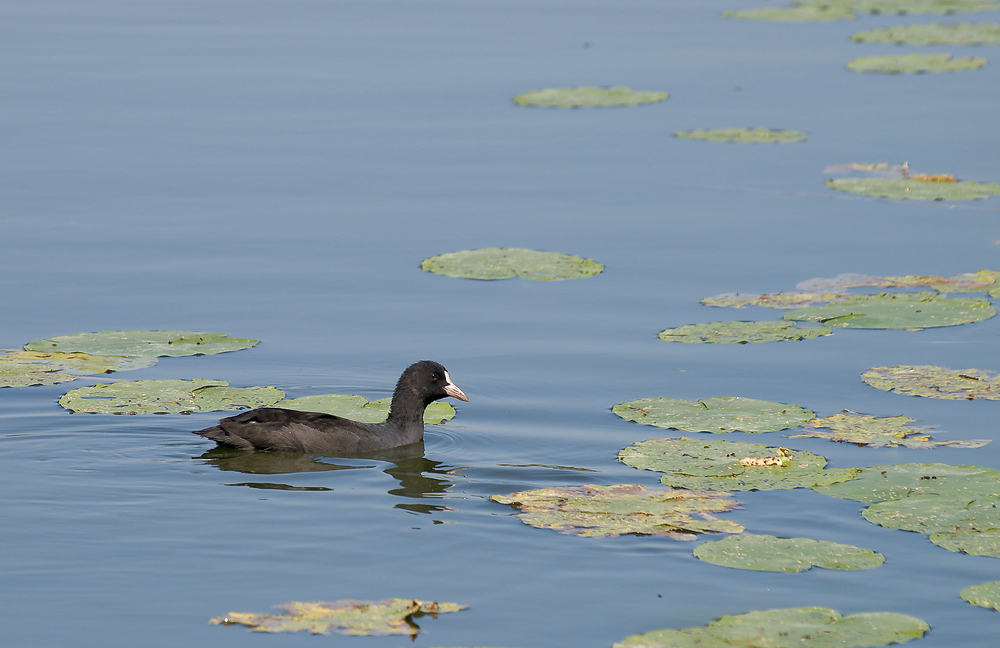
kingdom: Animalia
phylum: Chordata
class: Aves
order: Gruiformes
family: Rallidae
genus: Fulica
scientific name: Fulica atra
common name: Eurasian coot
